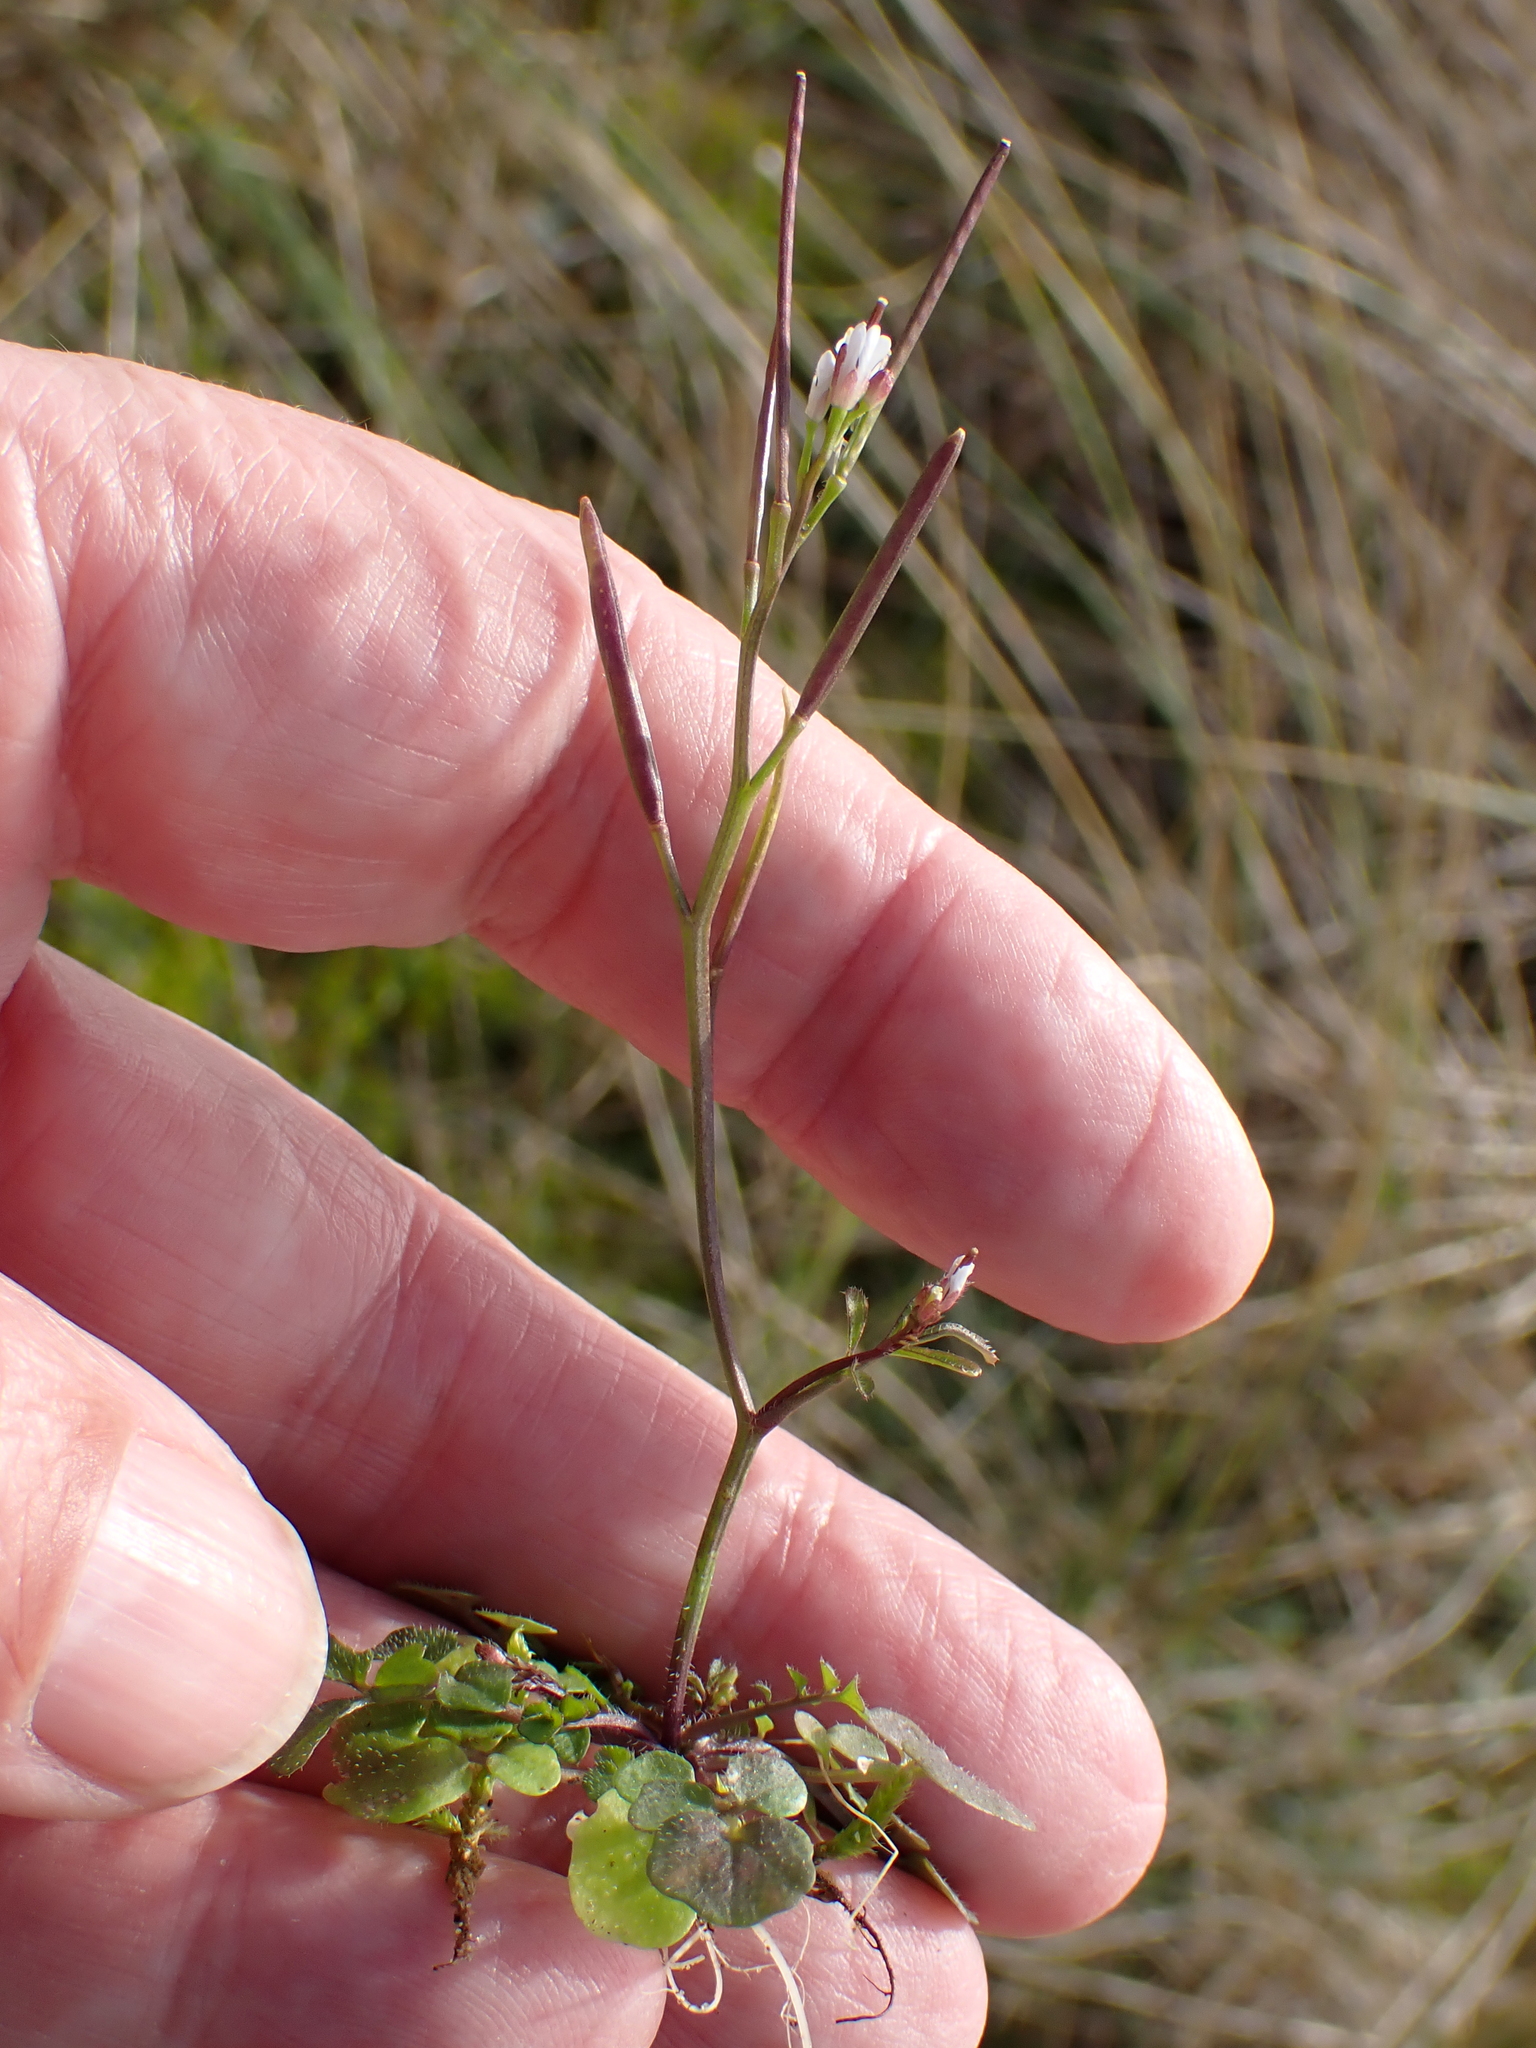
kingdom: Plantae
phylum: Tracheophyta
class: Magnoliopsida
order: Brassicales
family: Brassicaceae
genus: Cardamine
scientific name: Cardamine hirsuta
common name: Hairy bittercress
